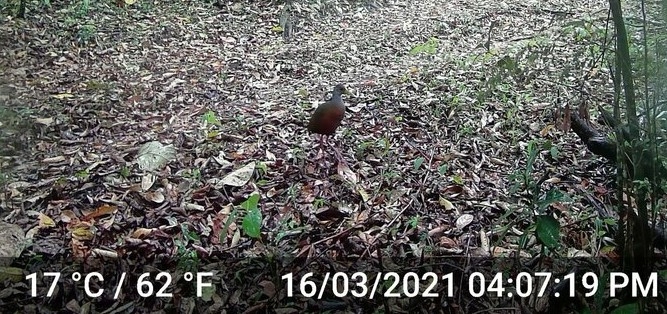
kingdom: Animalia
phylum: Chordata
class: Aves
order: Gruiformes
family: Rallidae
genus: Aramides
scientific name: Aramides cajanea
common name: Gray-necked wood-rail
